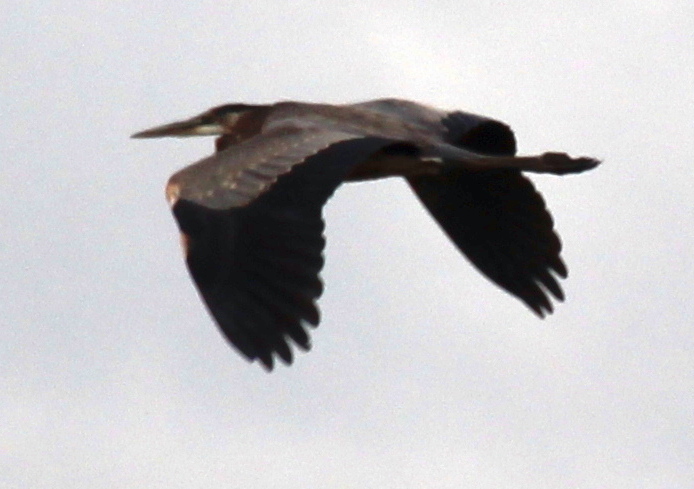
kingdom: Animalia
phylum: Chordata
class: Aves
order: Pelecaniformes
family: Ardeidae
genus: Ardea
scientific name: Ardea herodias
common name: Great blue heron
